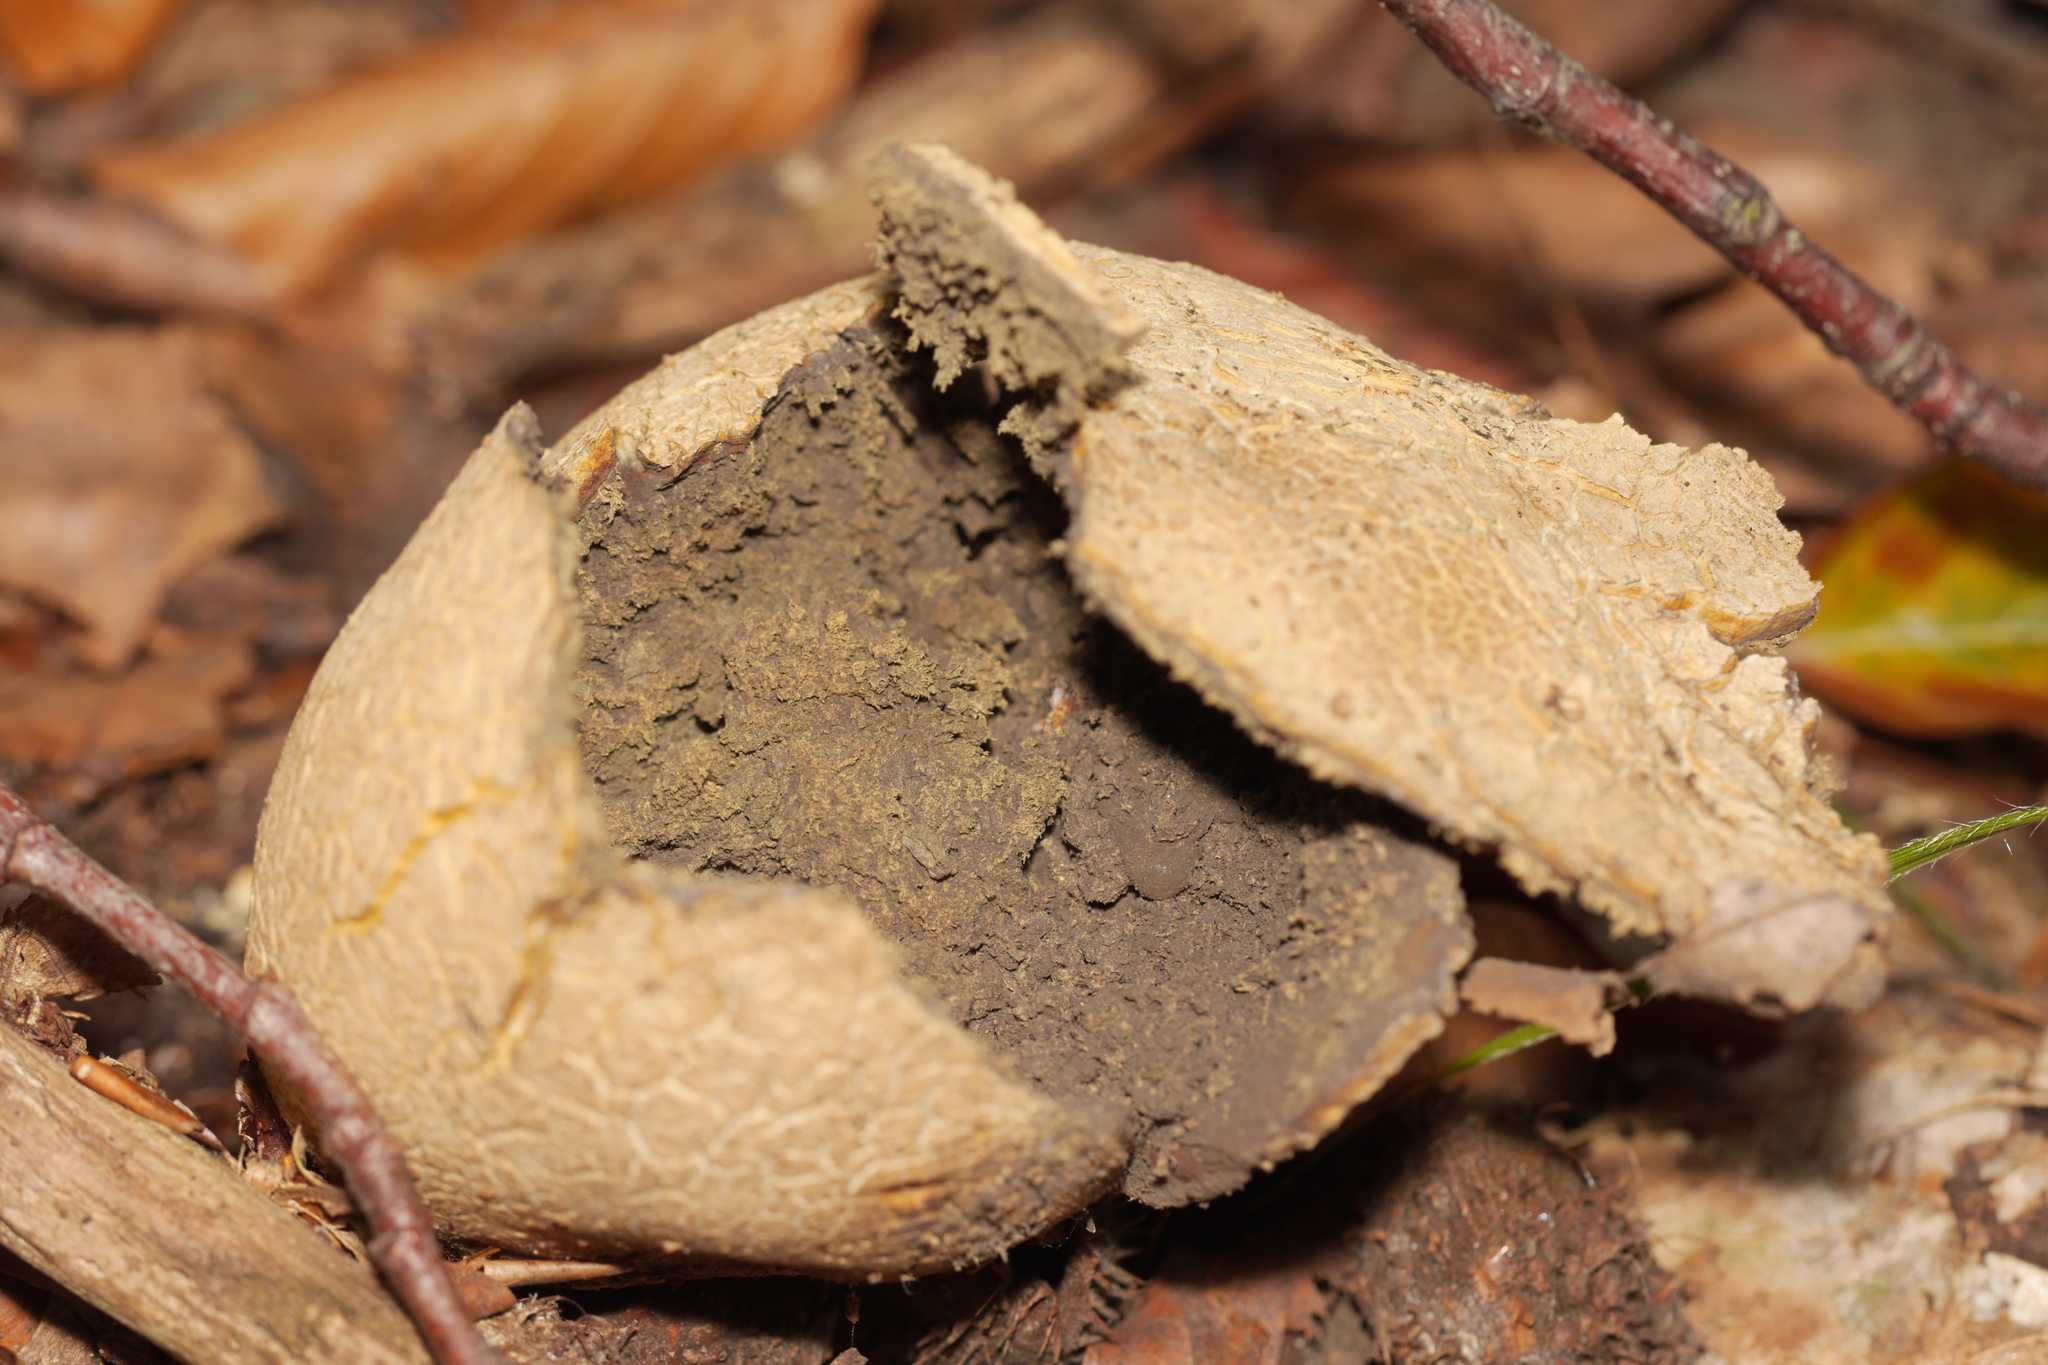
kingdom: Fungi
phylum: Basidiomycota
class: Agaricomycetes
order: Boletales
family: Sclerodermataceae
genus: Scleroderma
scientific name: Scleroderma citrinum
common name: Common earthball
